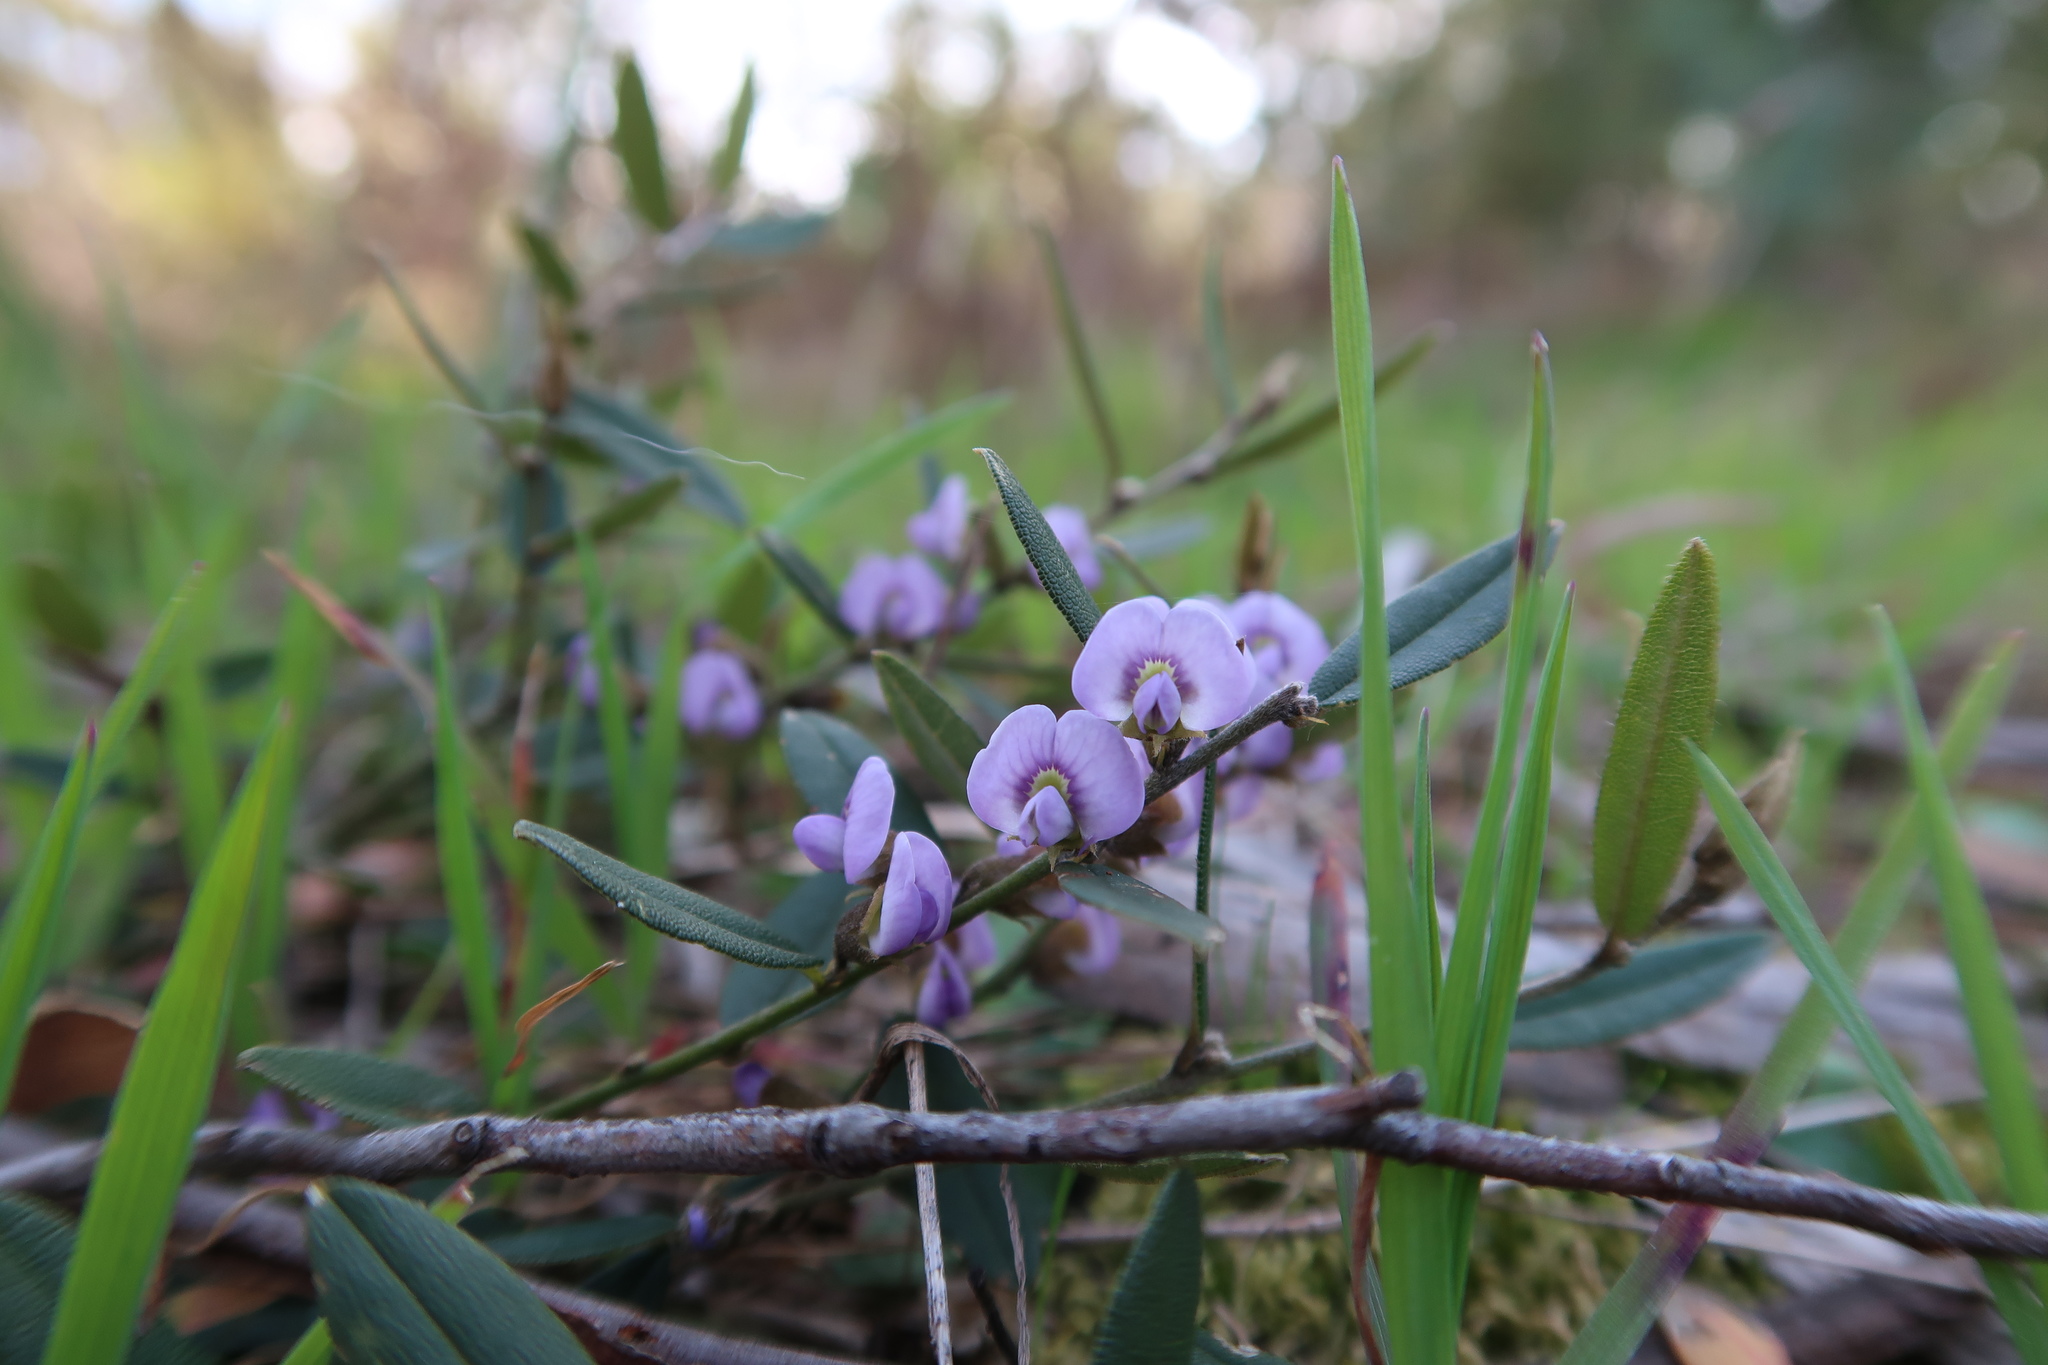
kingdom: Plantae
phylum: Tracheophyta
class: Magnoliopsida
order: Fabales
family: Fabaceae
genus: Hovea
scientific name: Hovea heterophylla
